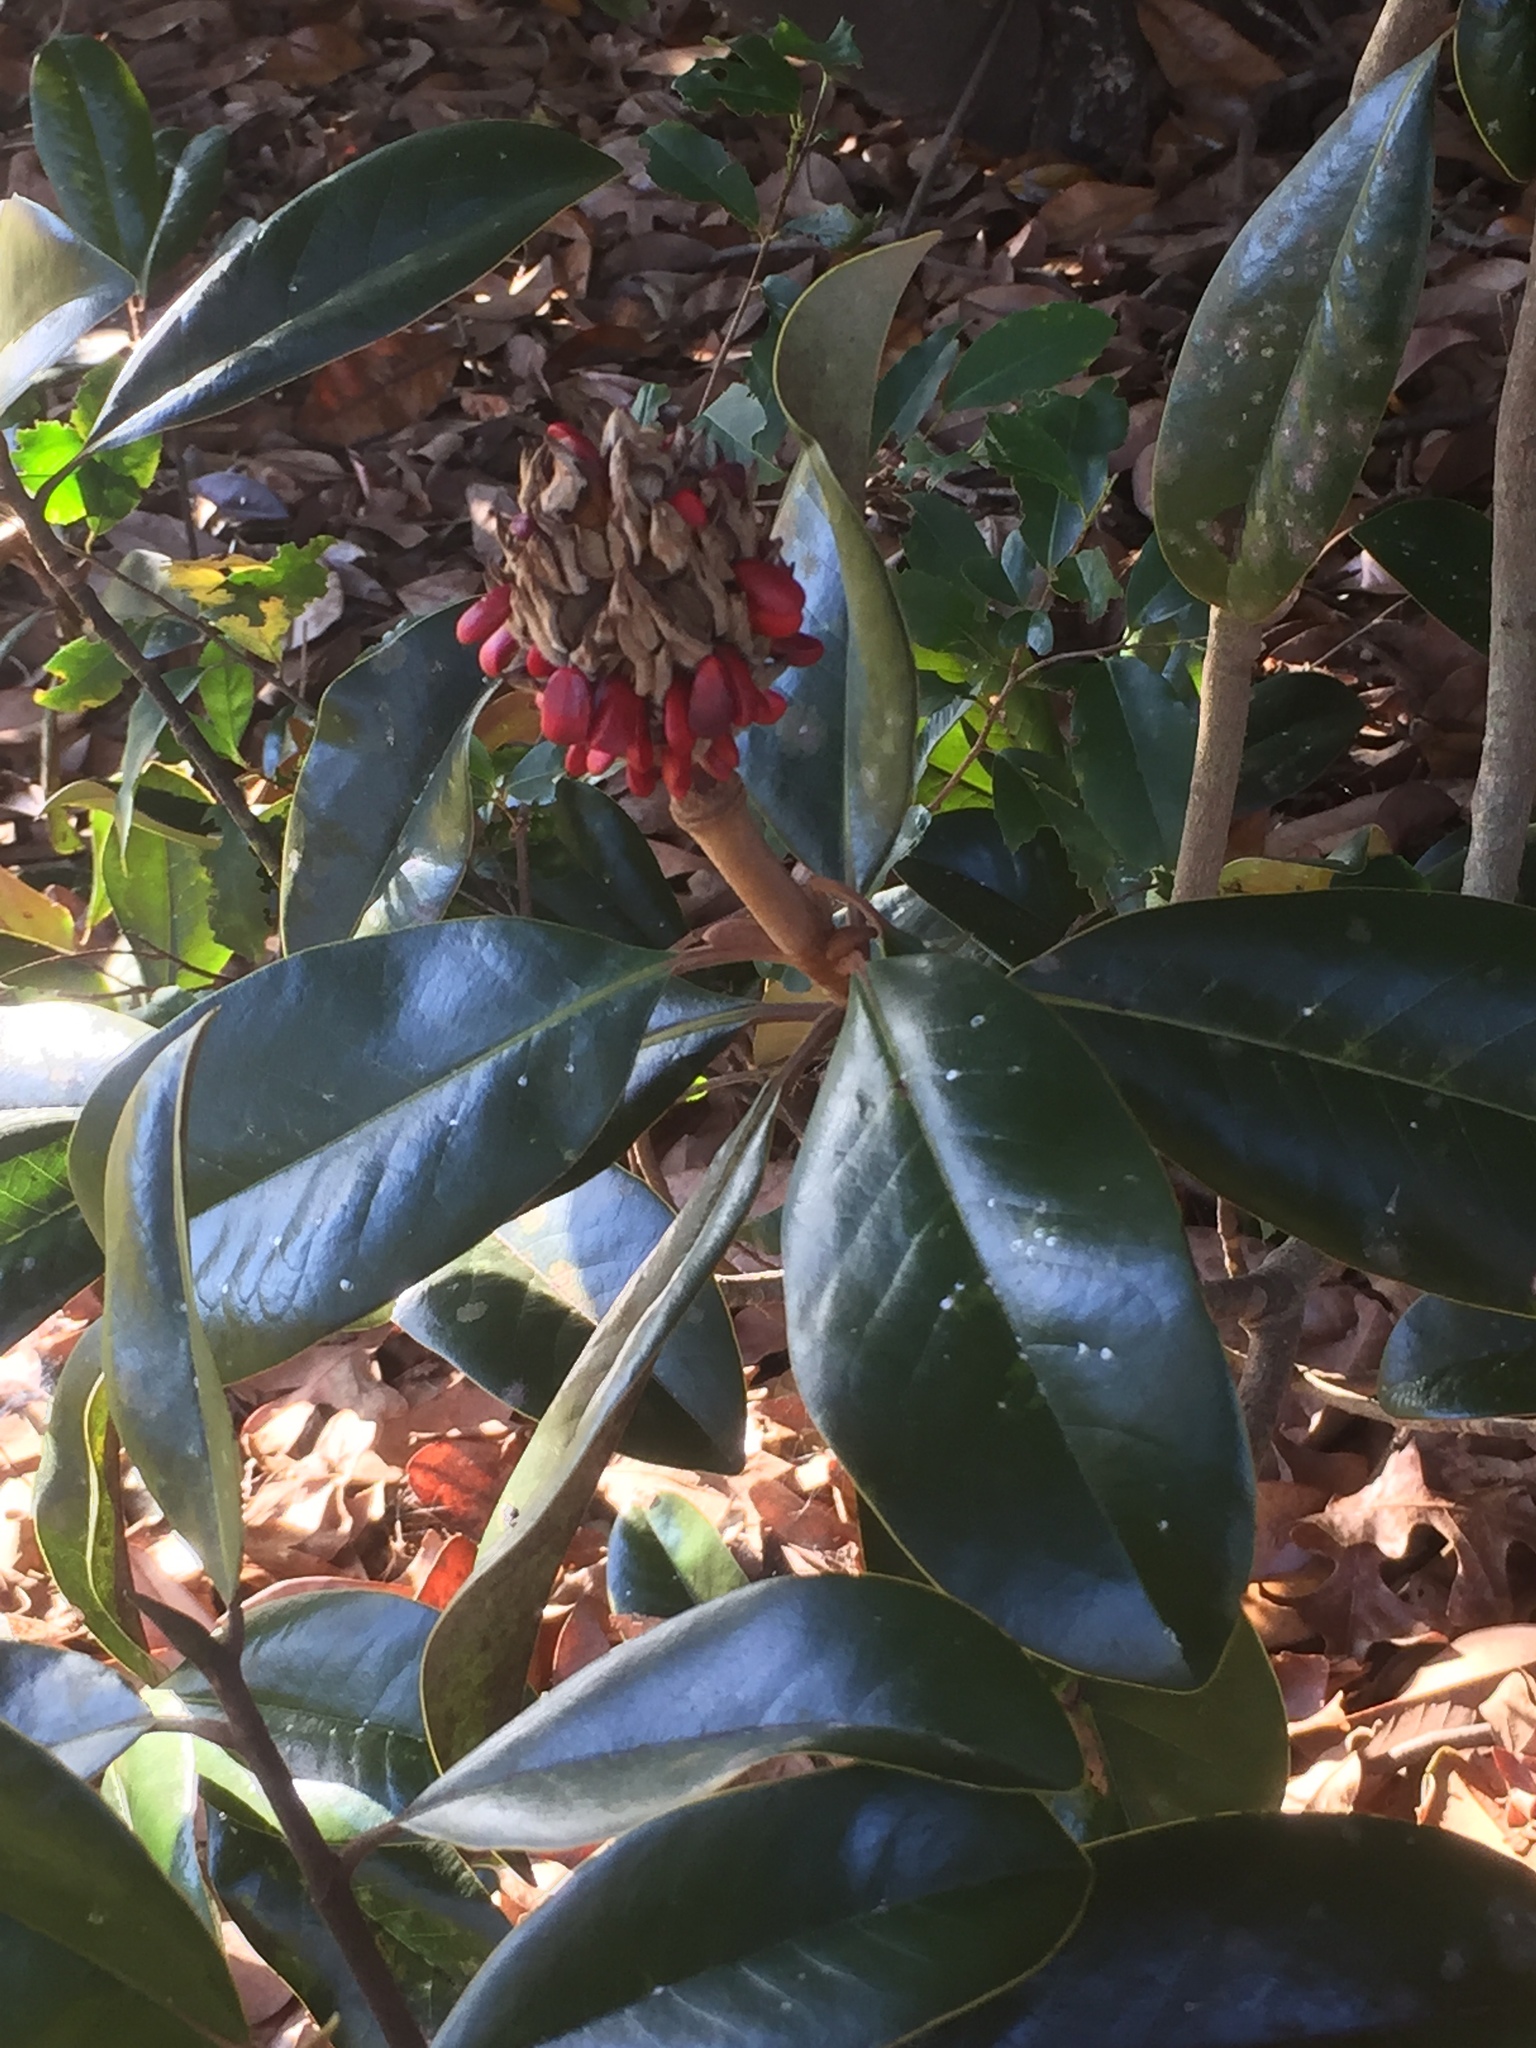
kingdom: Plantae
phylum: Tracheophyta
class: Magnoliopsida
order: Magnoliales
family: Magnoliaceae
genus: Magnolia
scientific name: Magnolia grandiflora
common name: Southern magnolia
